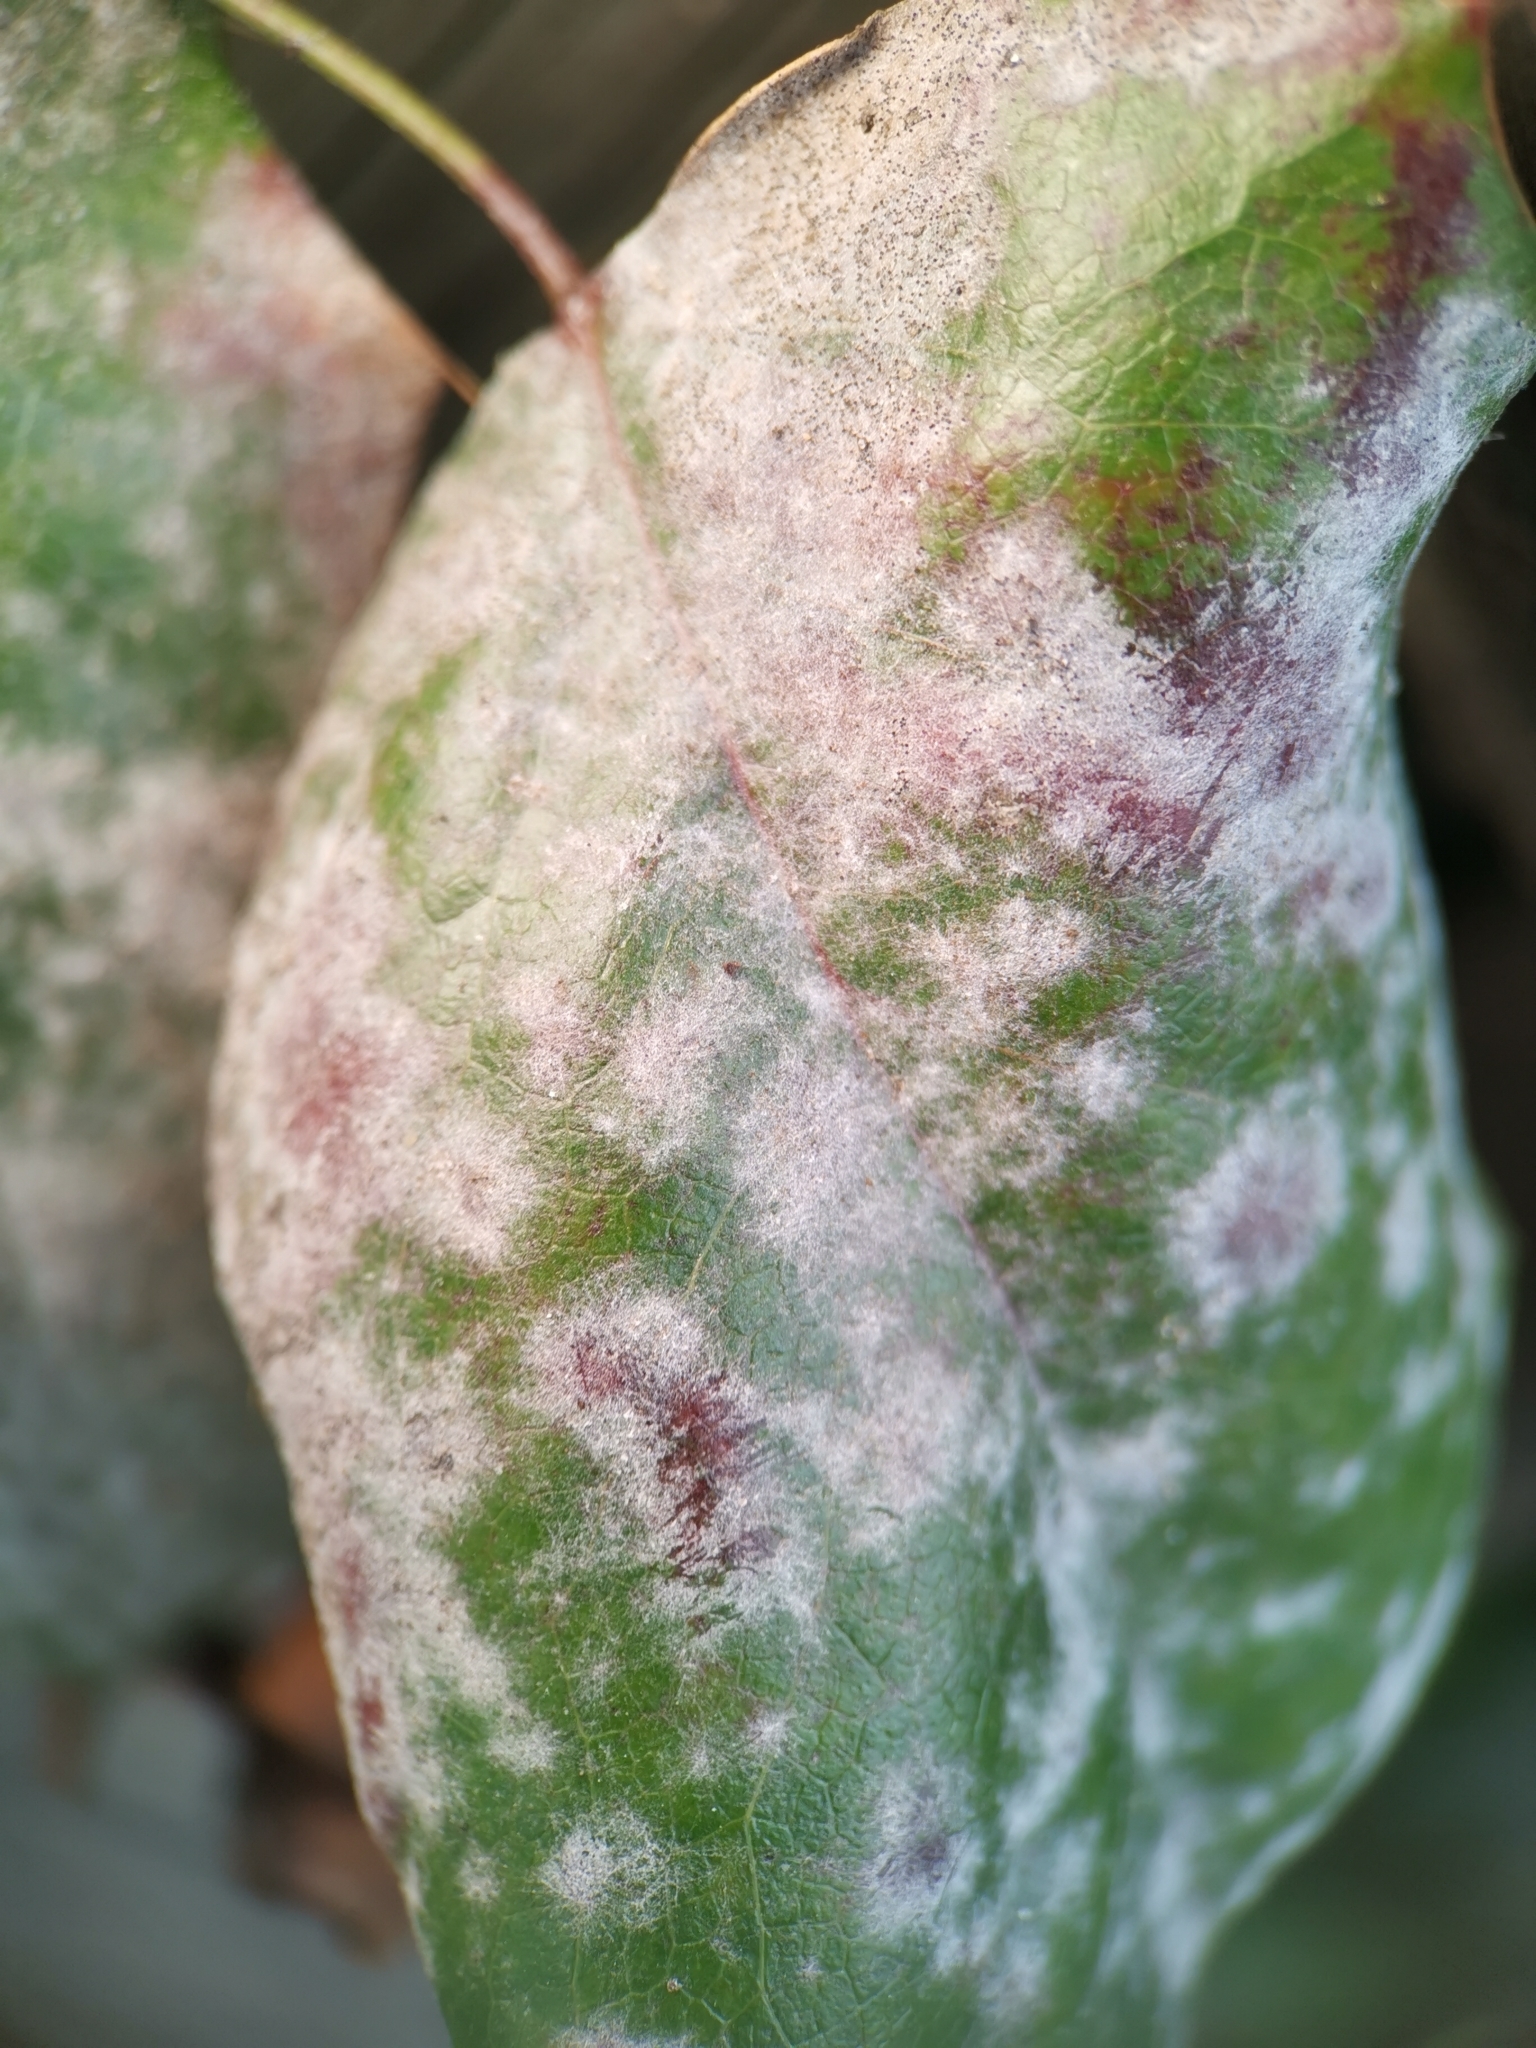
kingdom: Fungi
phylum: Ascomycota
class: Leotiomycetes
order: Helotiales
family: Erysiphaceae
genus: Erysiphe
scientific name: Erysiphe berberidis
